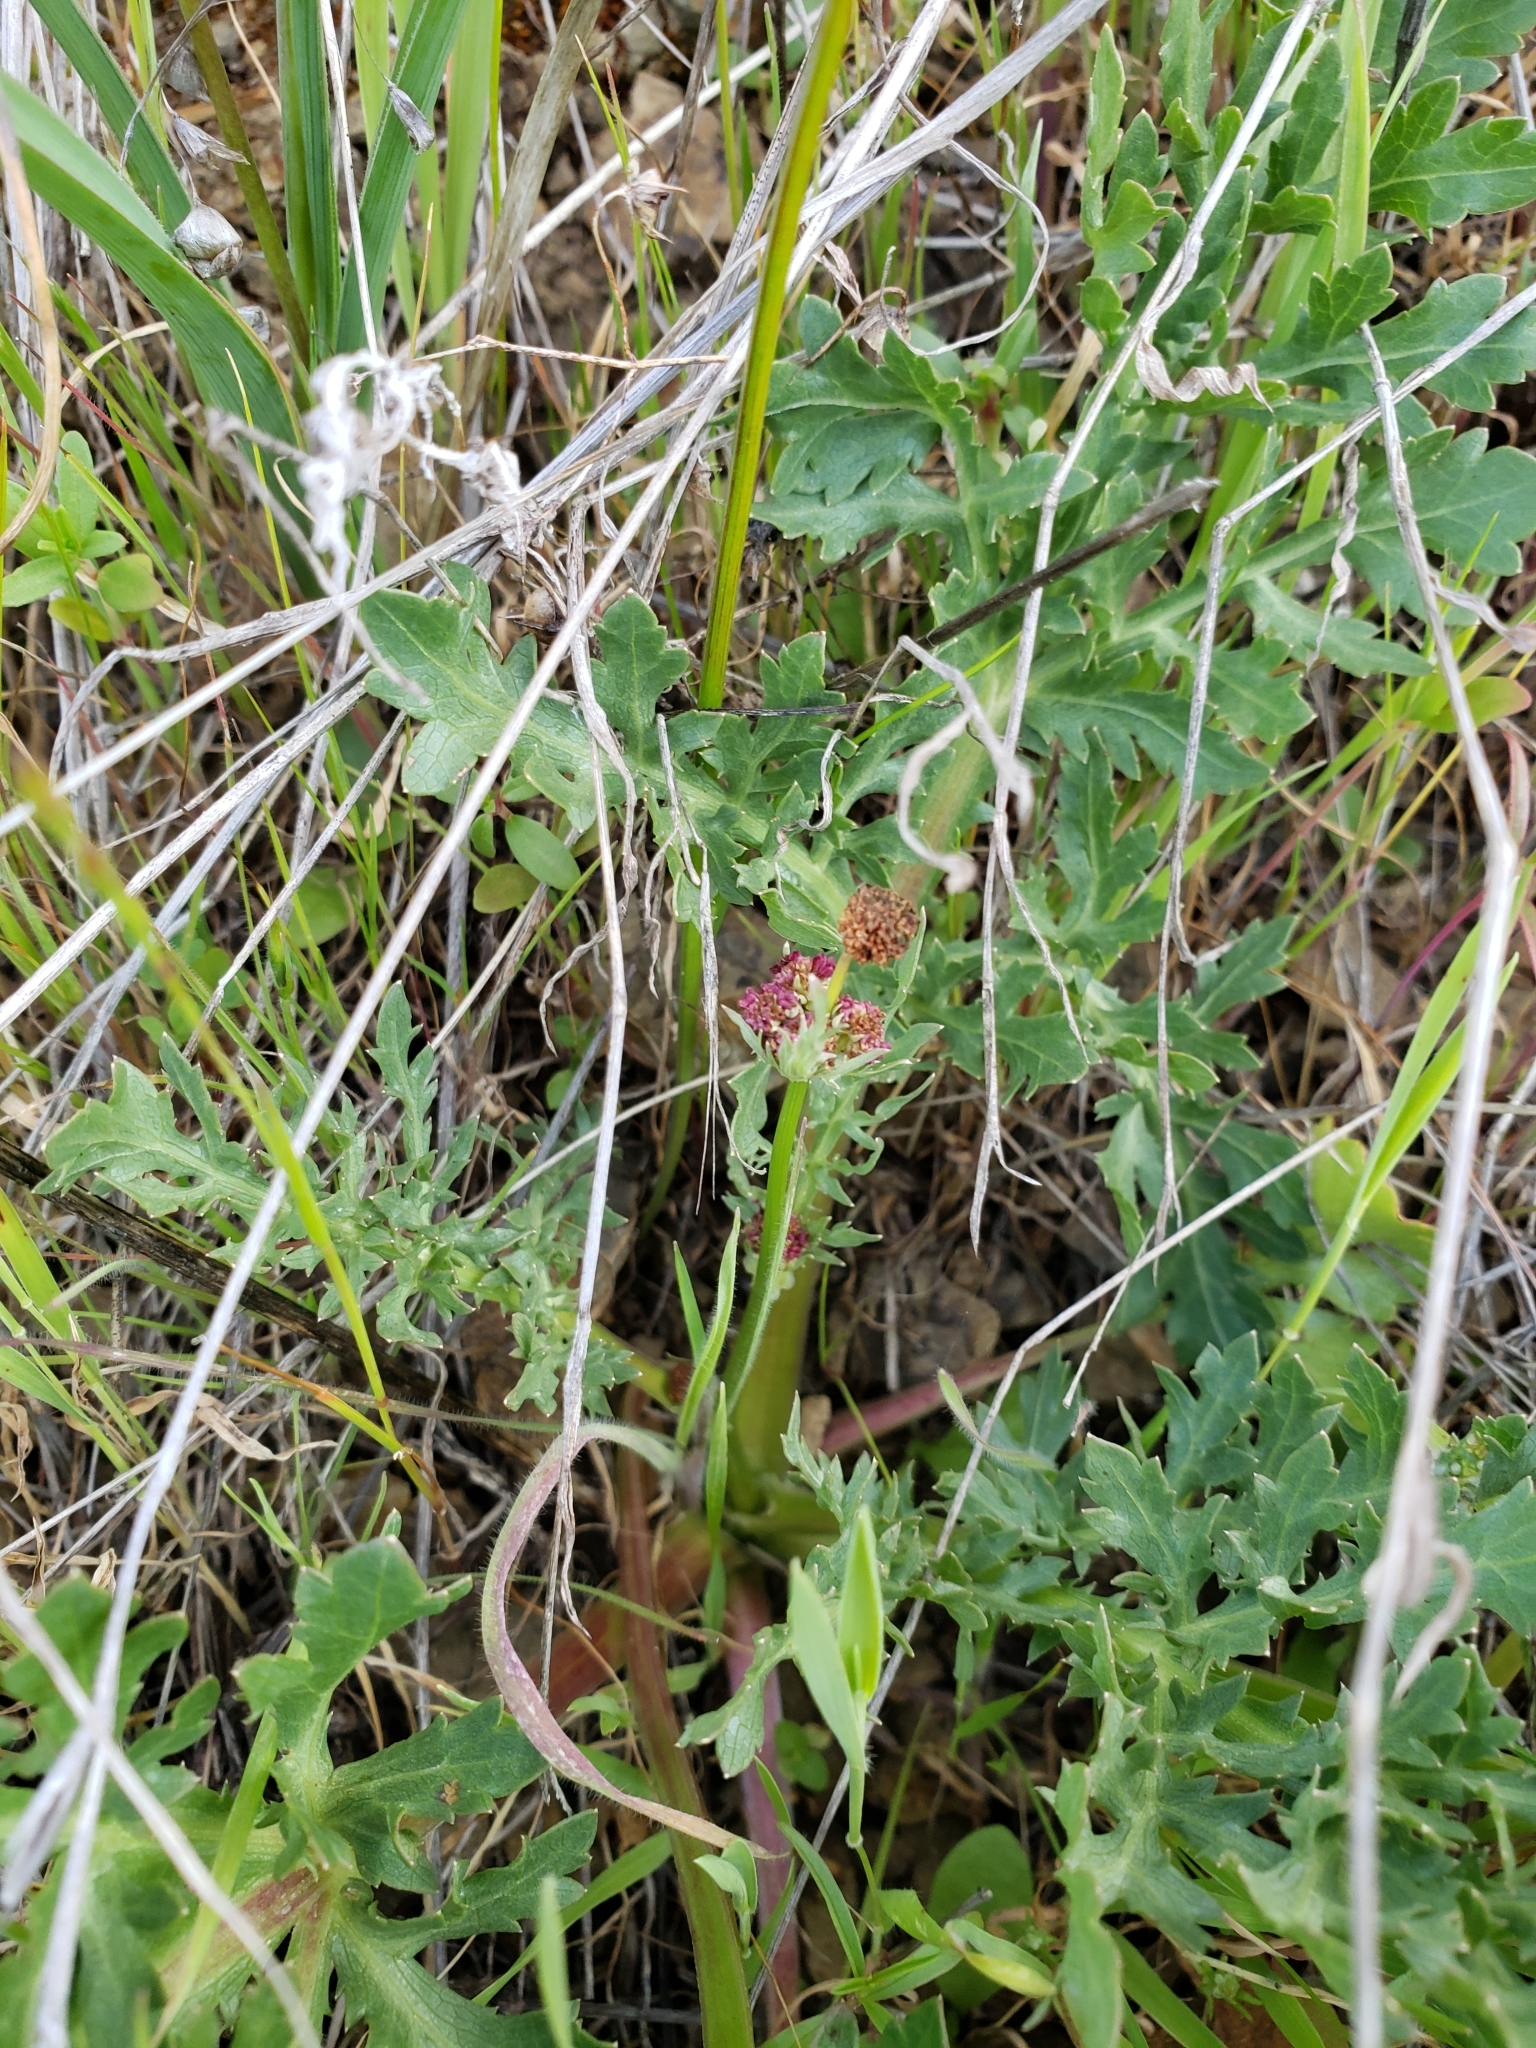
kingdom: Plantae
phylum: Tracheophyta
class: Magnoliopsida
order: Apiales
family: Apiaceae
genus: Sanicula
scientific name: Sanicula bipinnatifida
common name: Shoe-buttons
